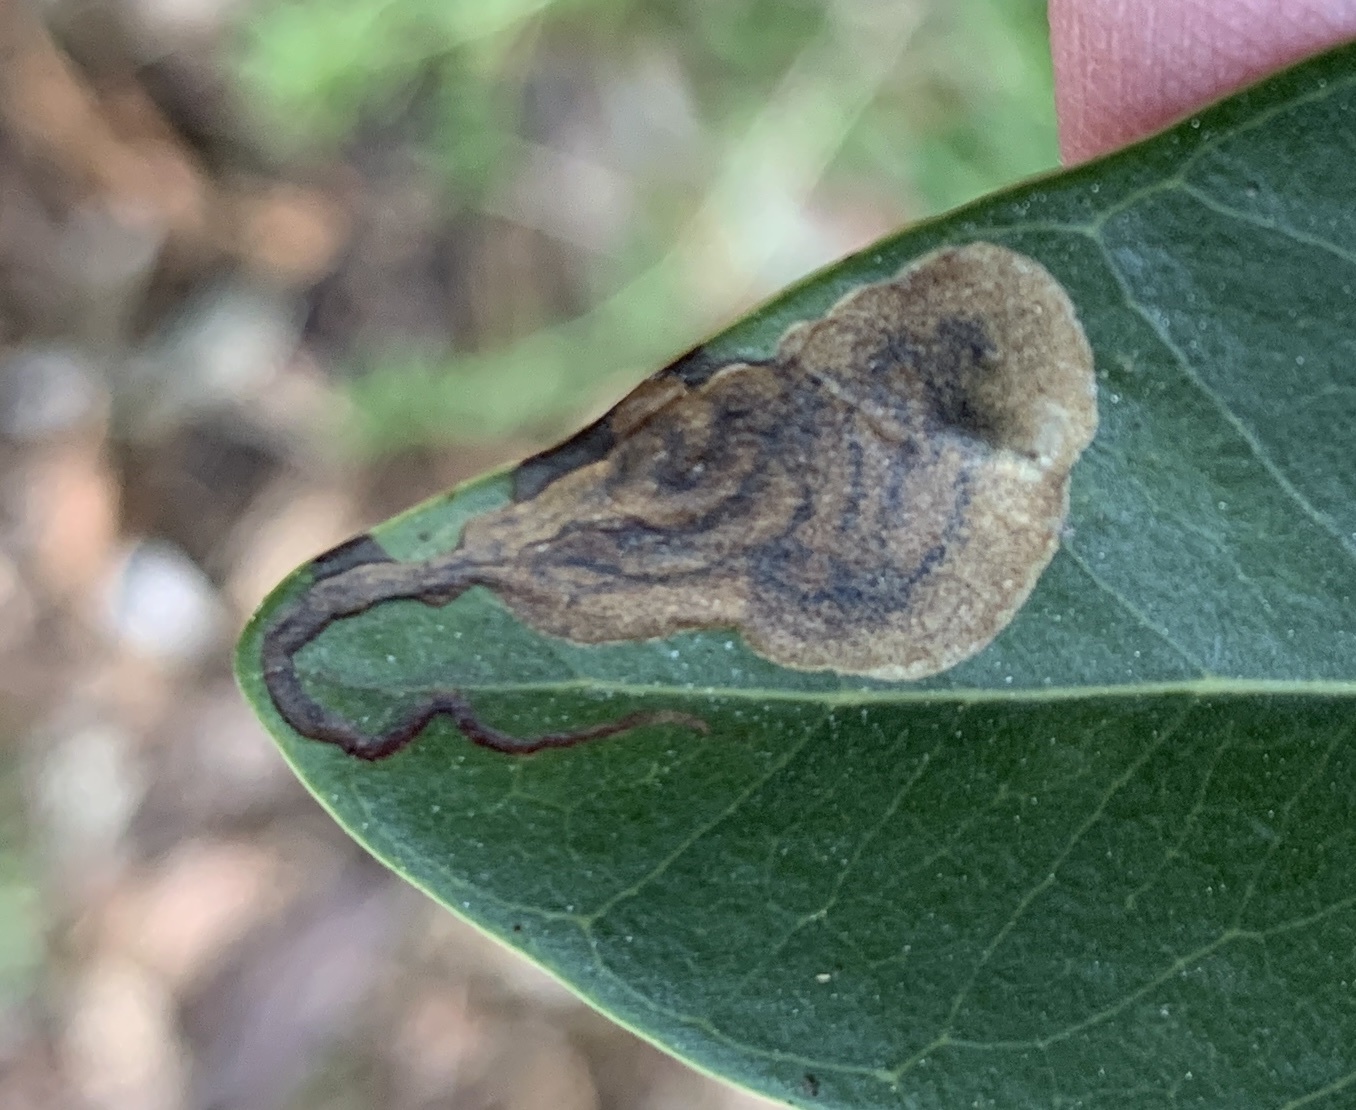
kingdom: Animalia
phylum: Arthropoda
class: Insecta
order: Diptera
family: Agromyzidae
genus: Liriomyza
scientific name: Liriomyza avicenniae
